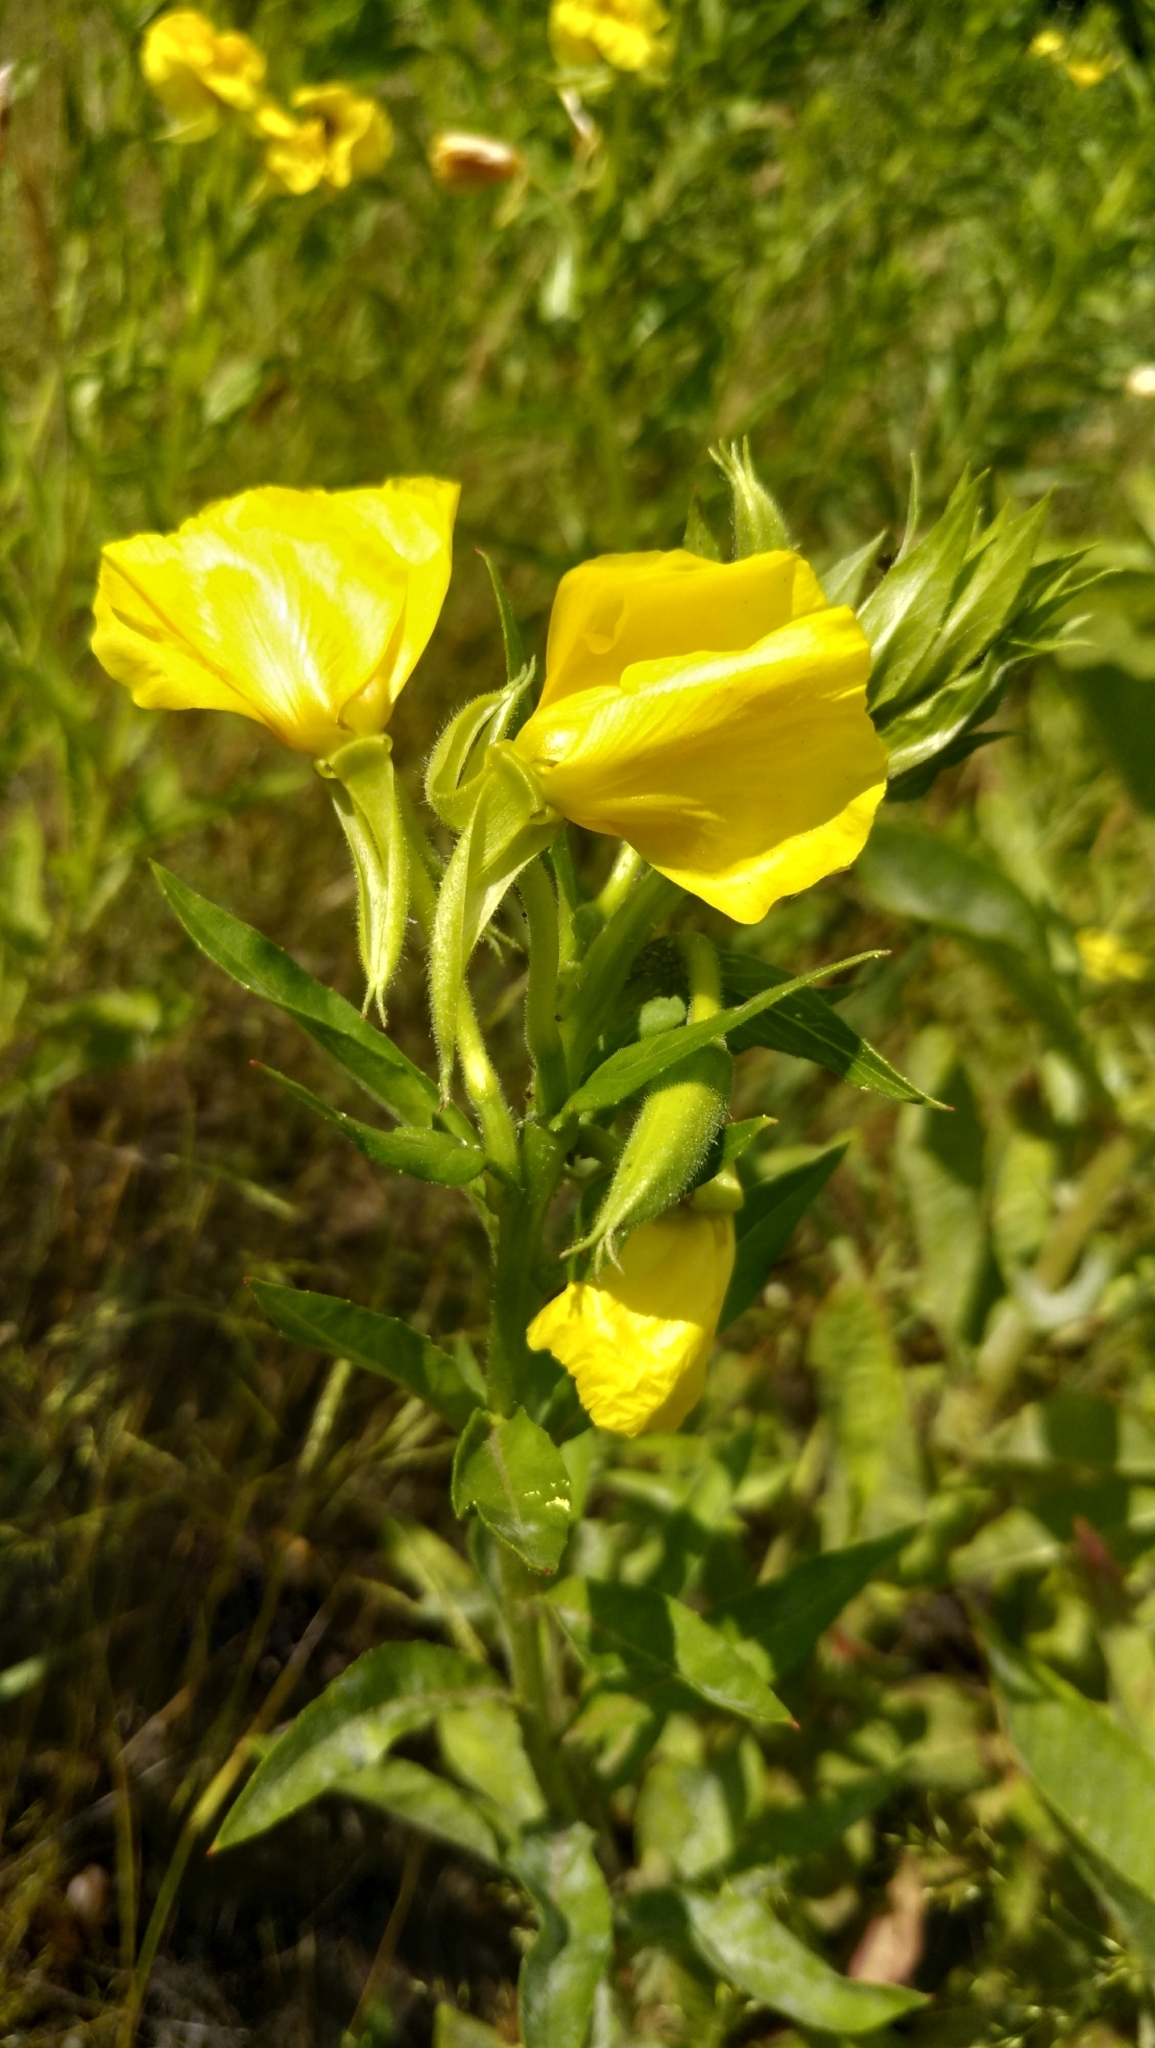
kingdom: Plantae
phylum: Tracheophyta
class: Magnoliopsida
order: Myrtales
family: Onagraceae
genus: Oenothera
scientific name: Oenothera biennis
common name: Common evening-primrose
